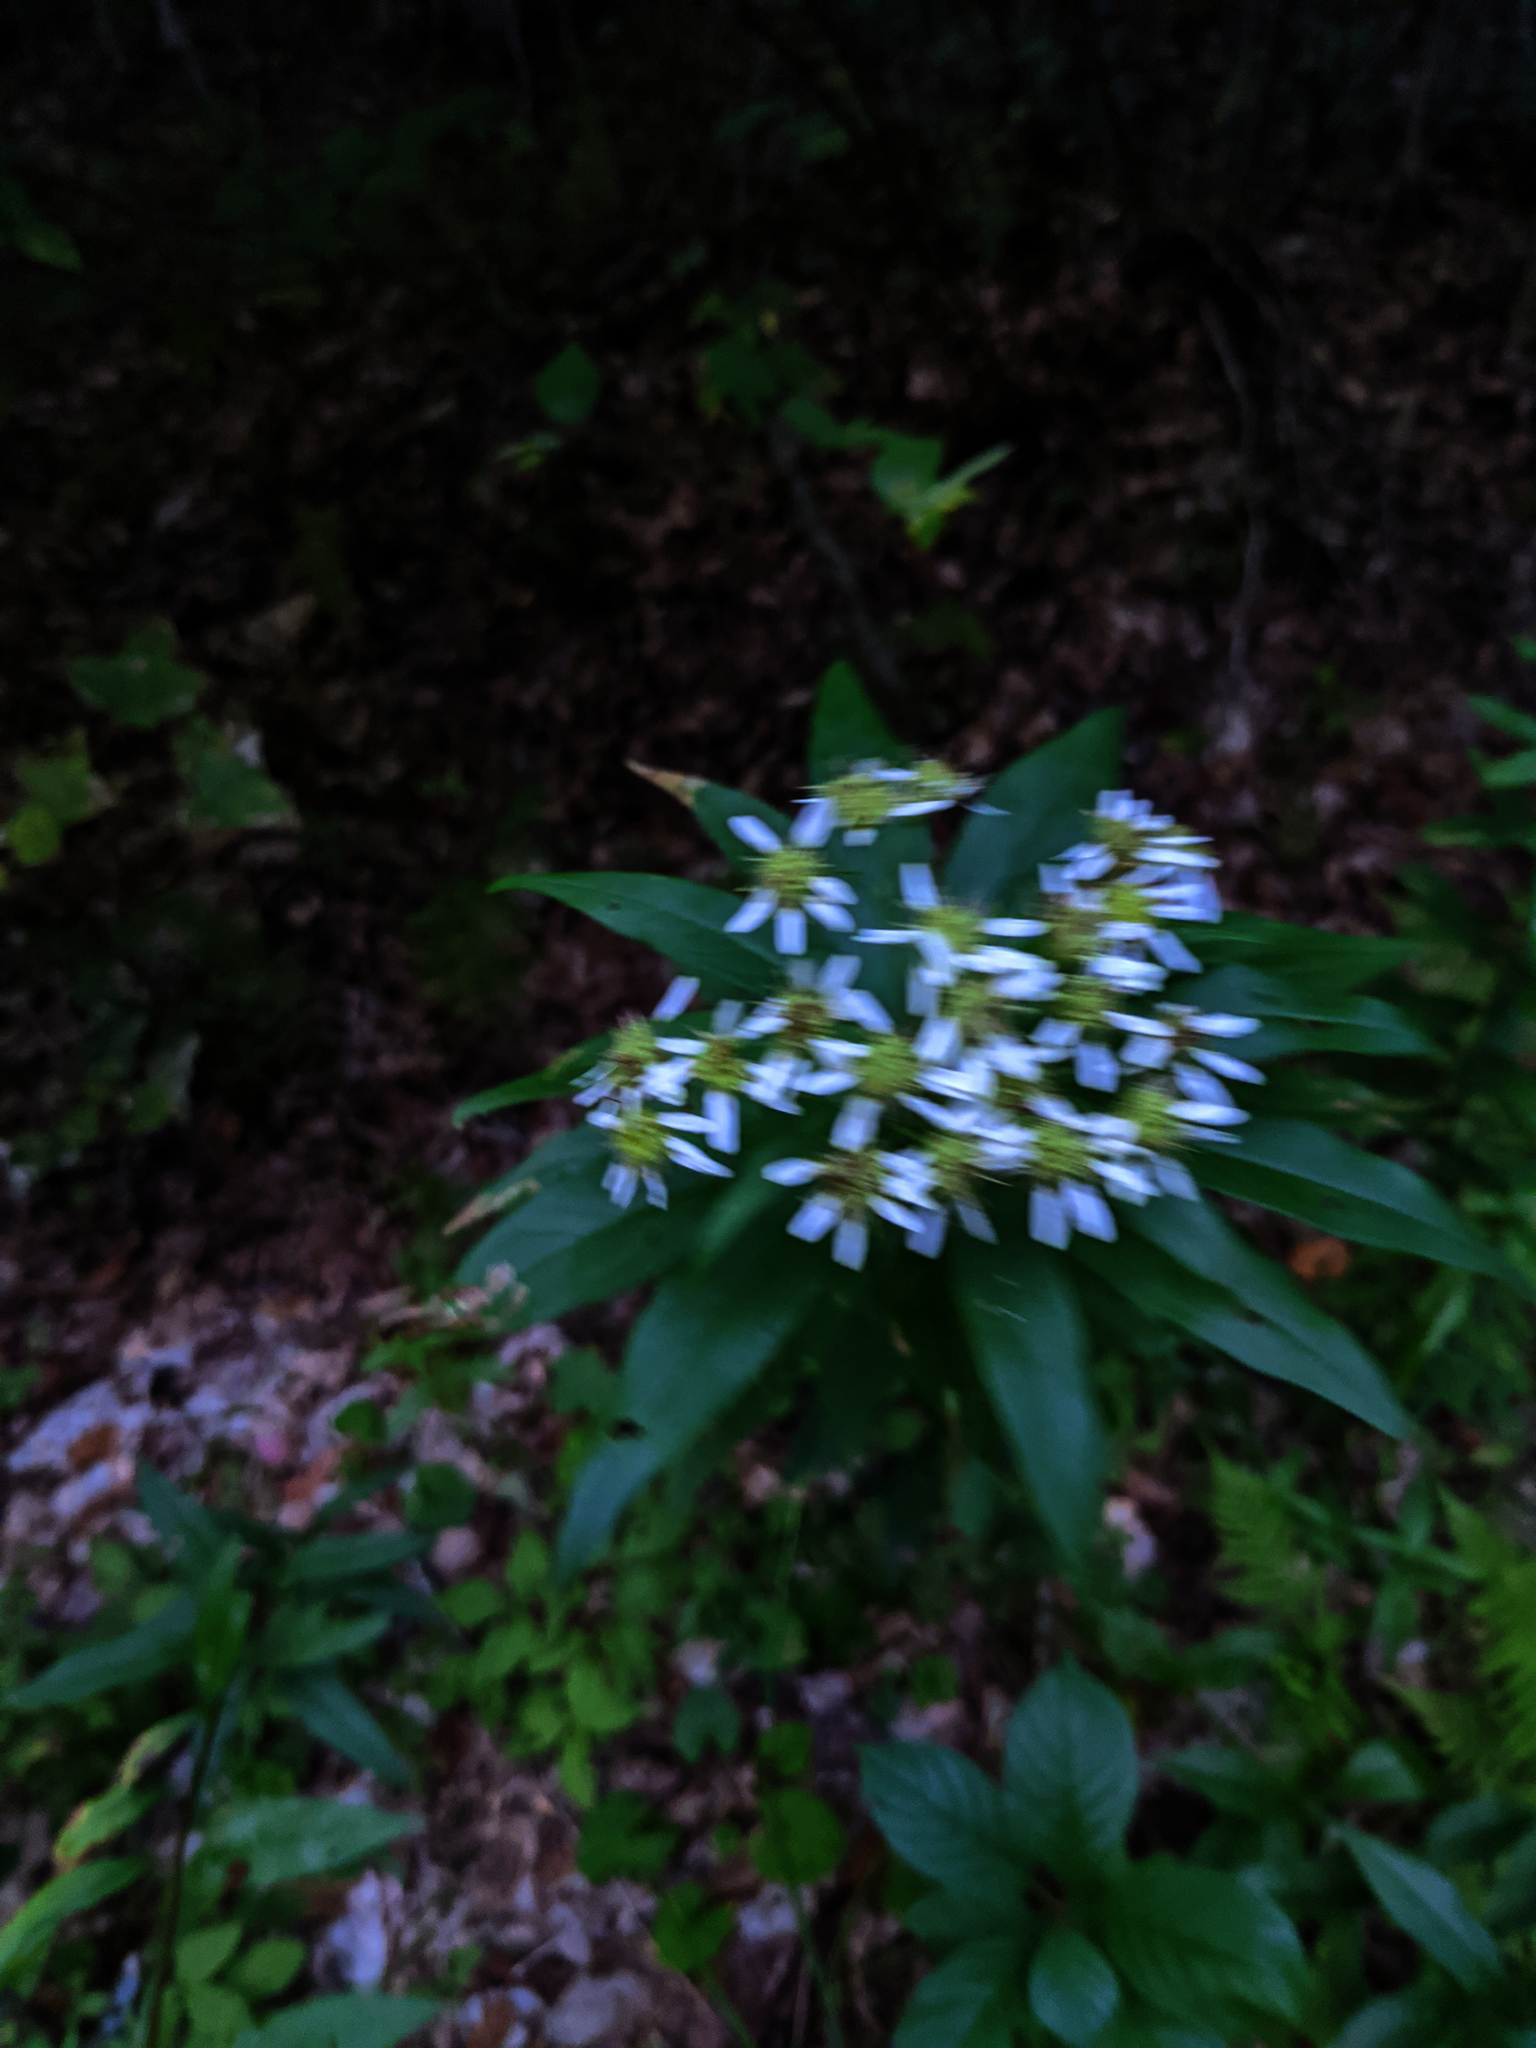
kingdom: Plantae
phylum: Tracheophyta
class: Magnoliopsida
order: Asterales
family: Asteraceae
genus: Doellingeria
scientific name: Doellingeria umbellata
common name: Flat-top white aster
